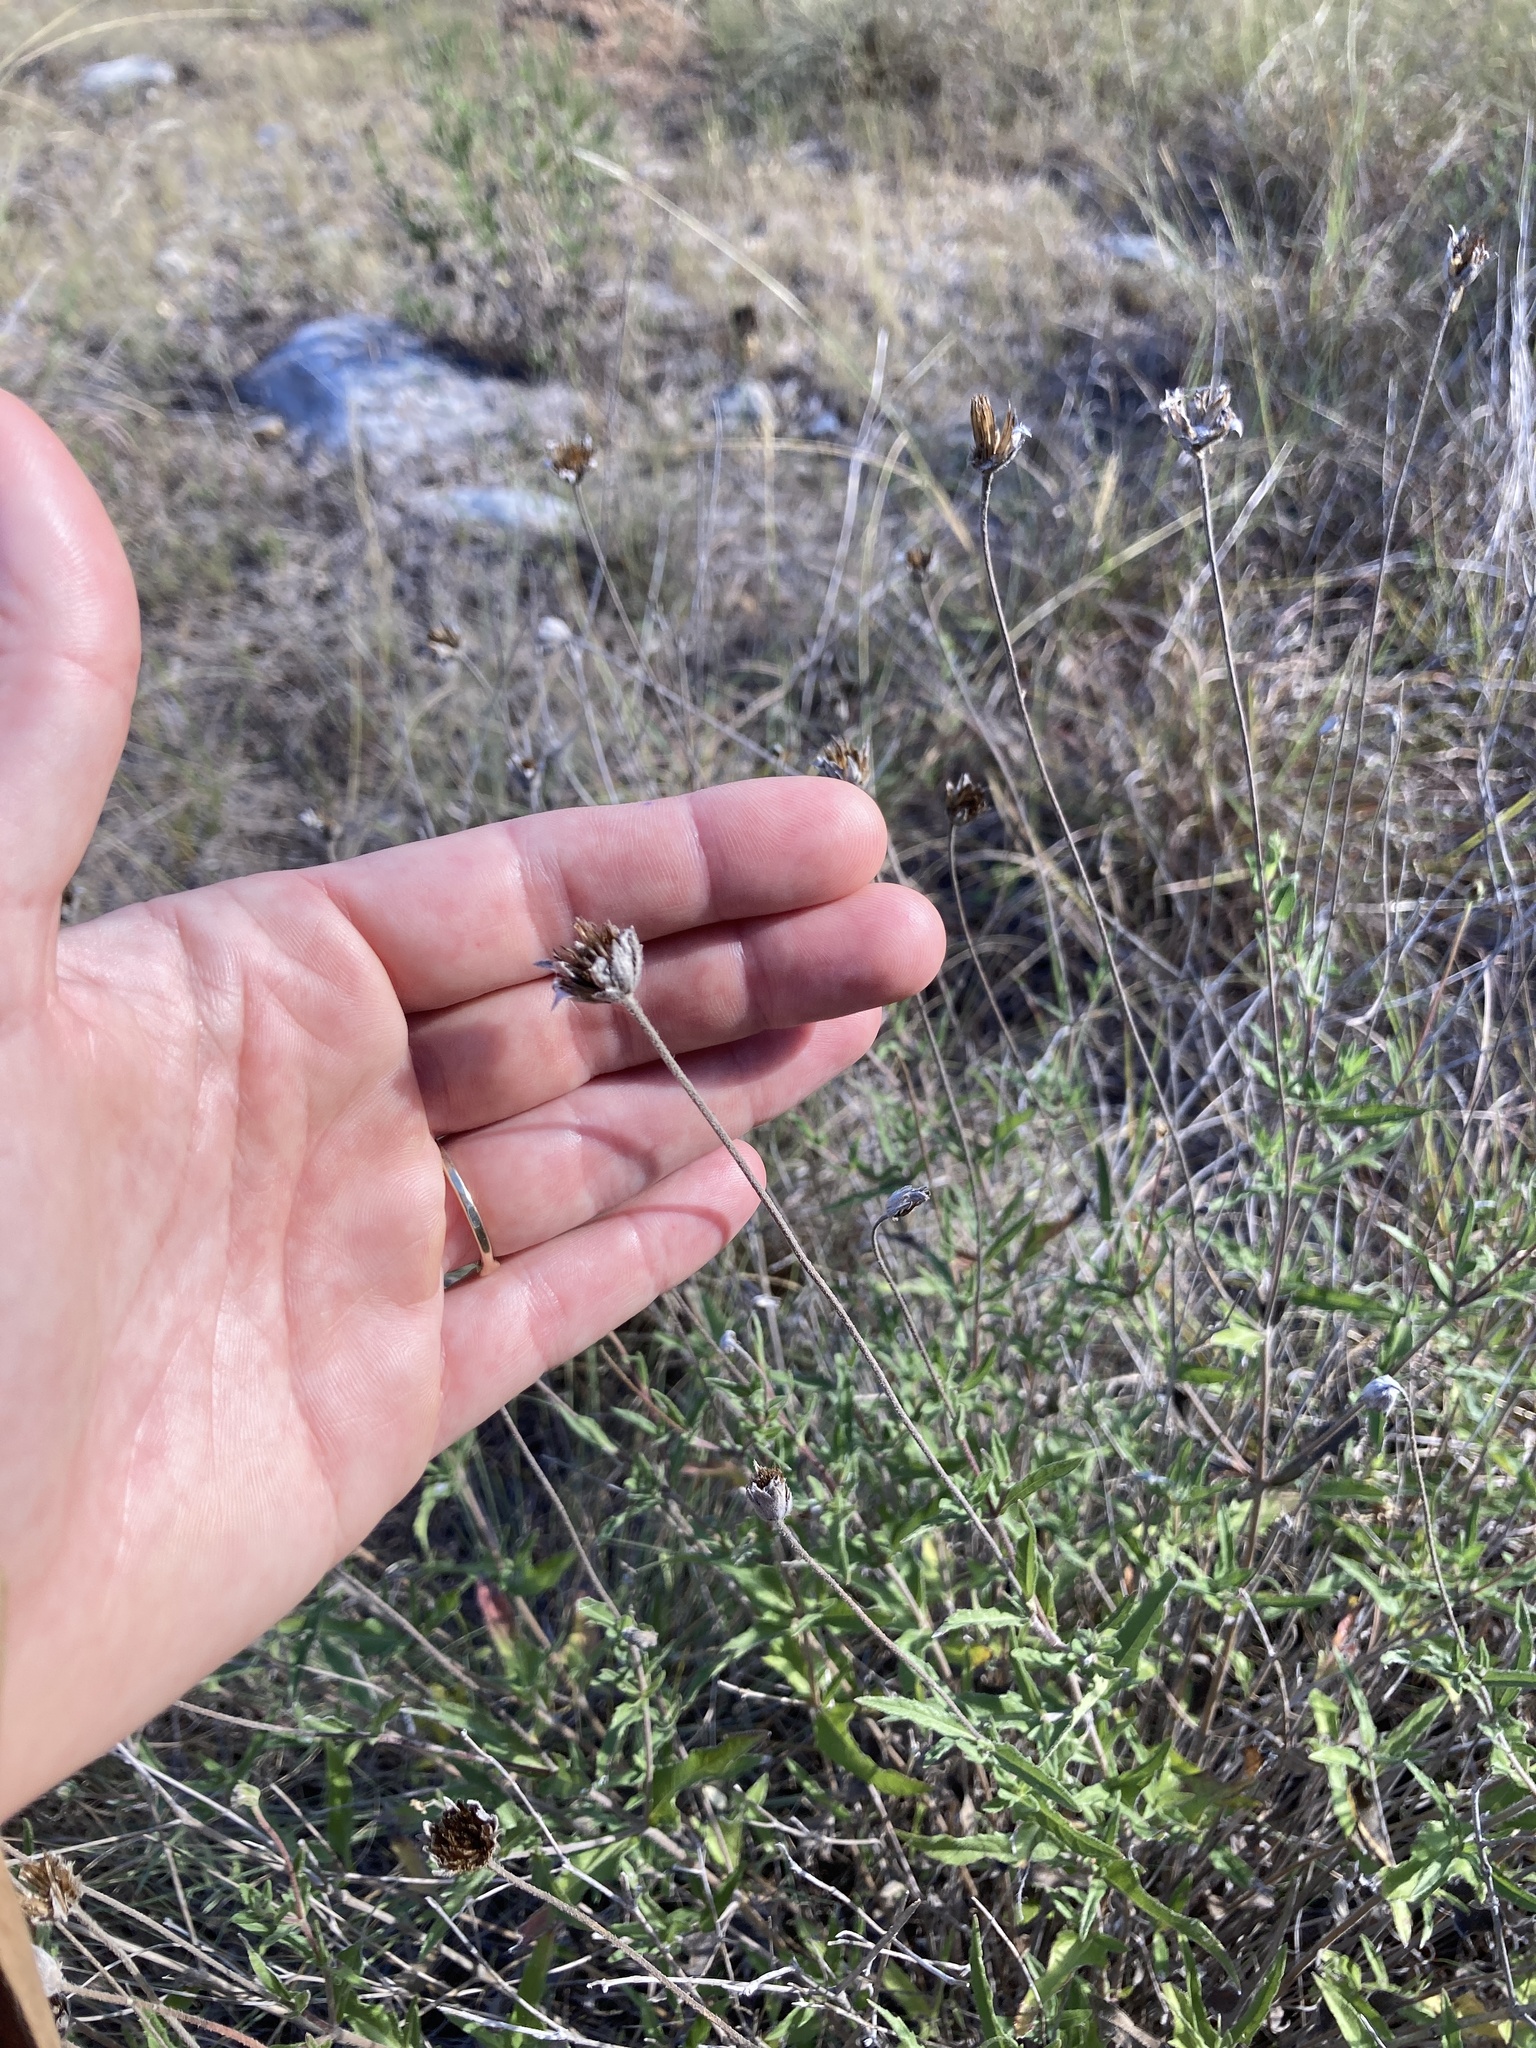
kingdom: Plantae
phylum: Tracheophyta
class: Magnoliopsida
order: Asterales
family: Asteraceae
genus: Wedelia
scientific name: Wedelia acapulcensis
